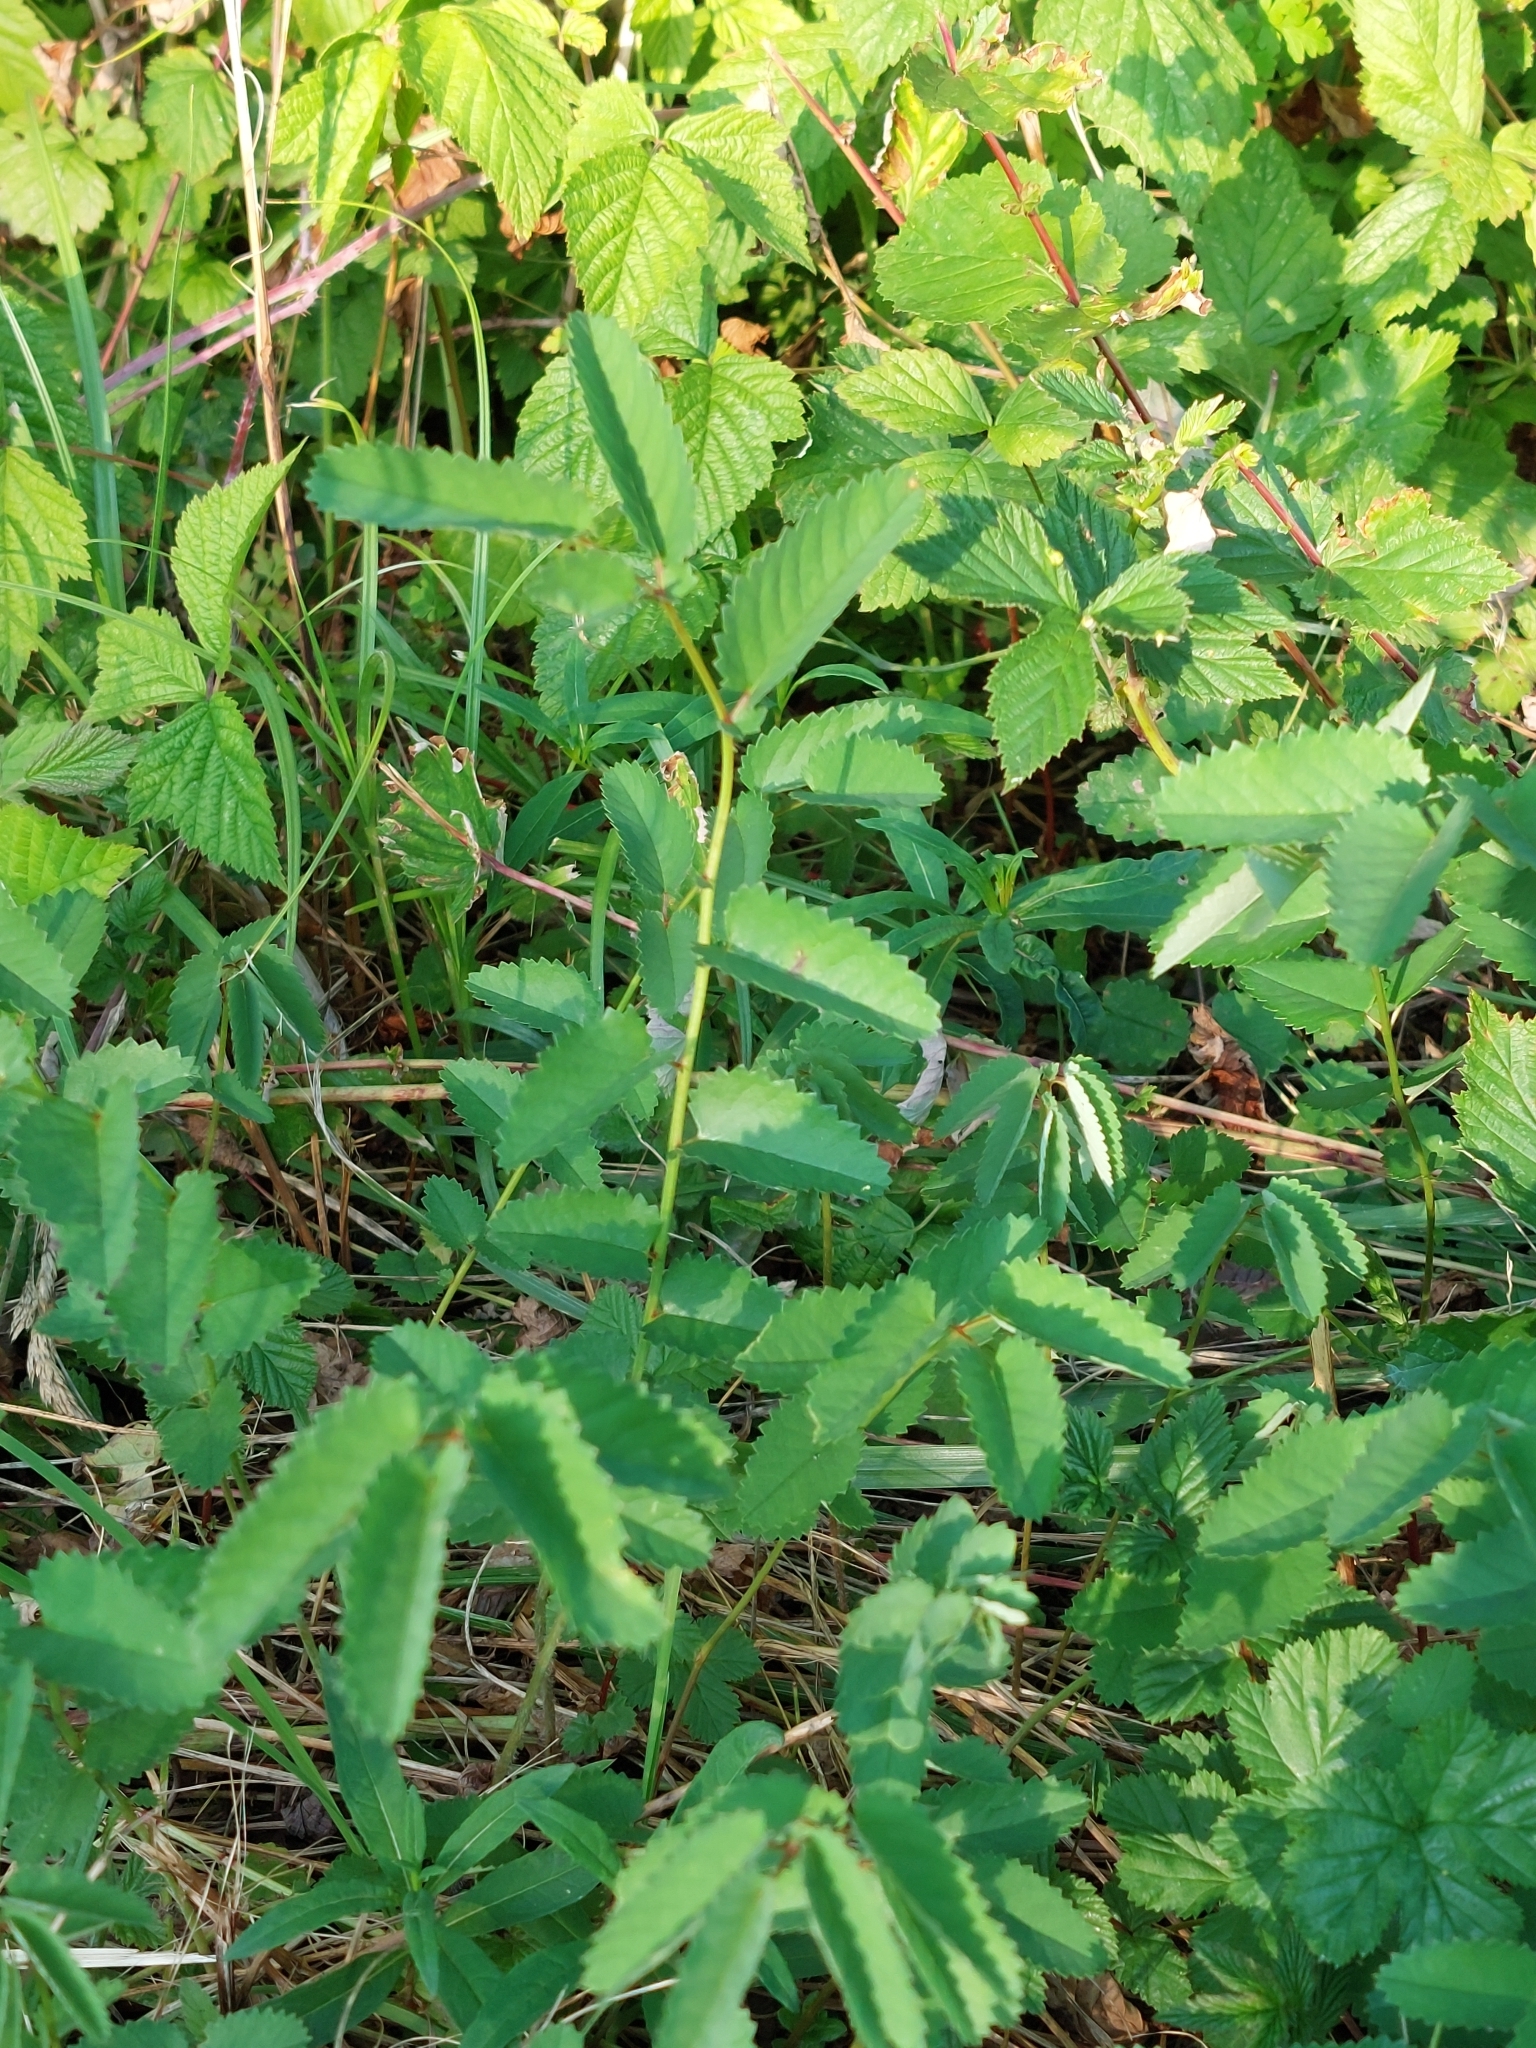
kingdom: Plantae
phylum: Tracheophyta
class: Magnoliopsida
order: Rosales
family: Rosaceae
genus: Sanguisorba
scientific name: Sanguisorba officinalis
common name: Great burnet
